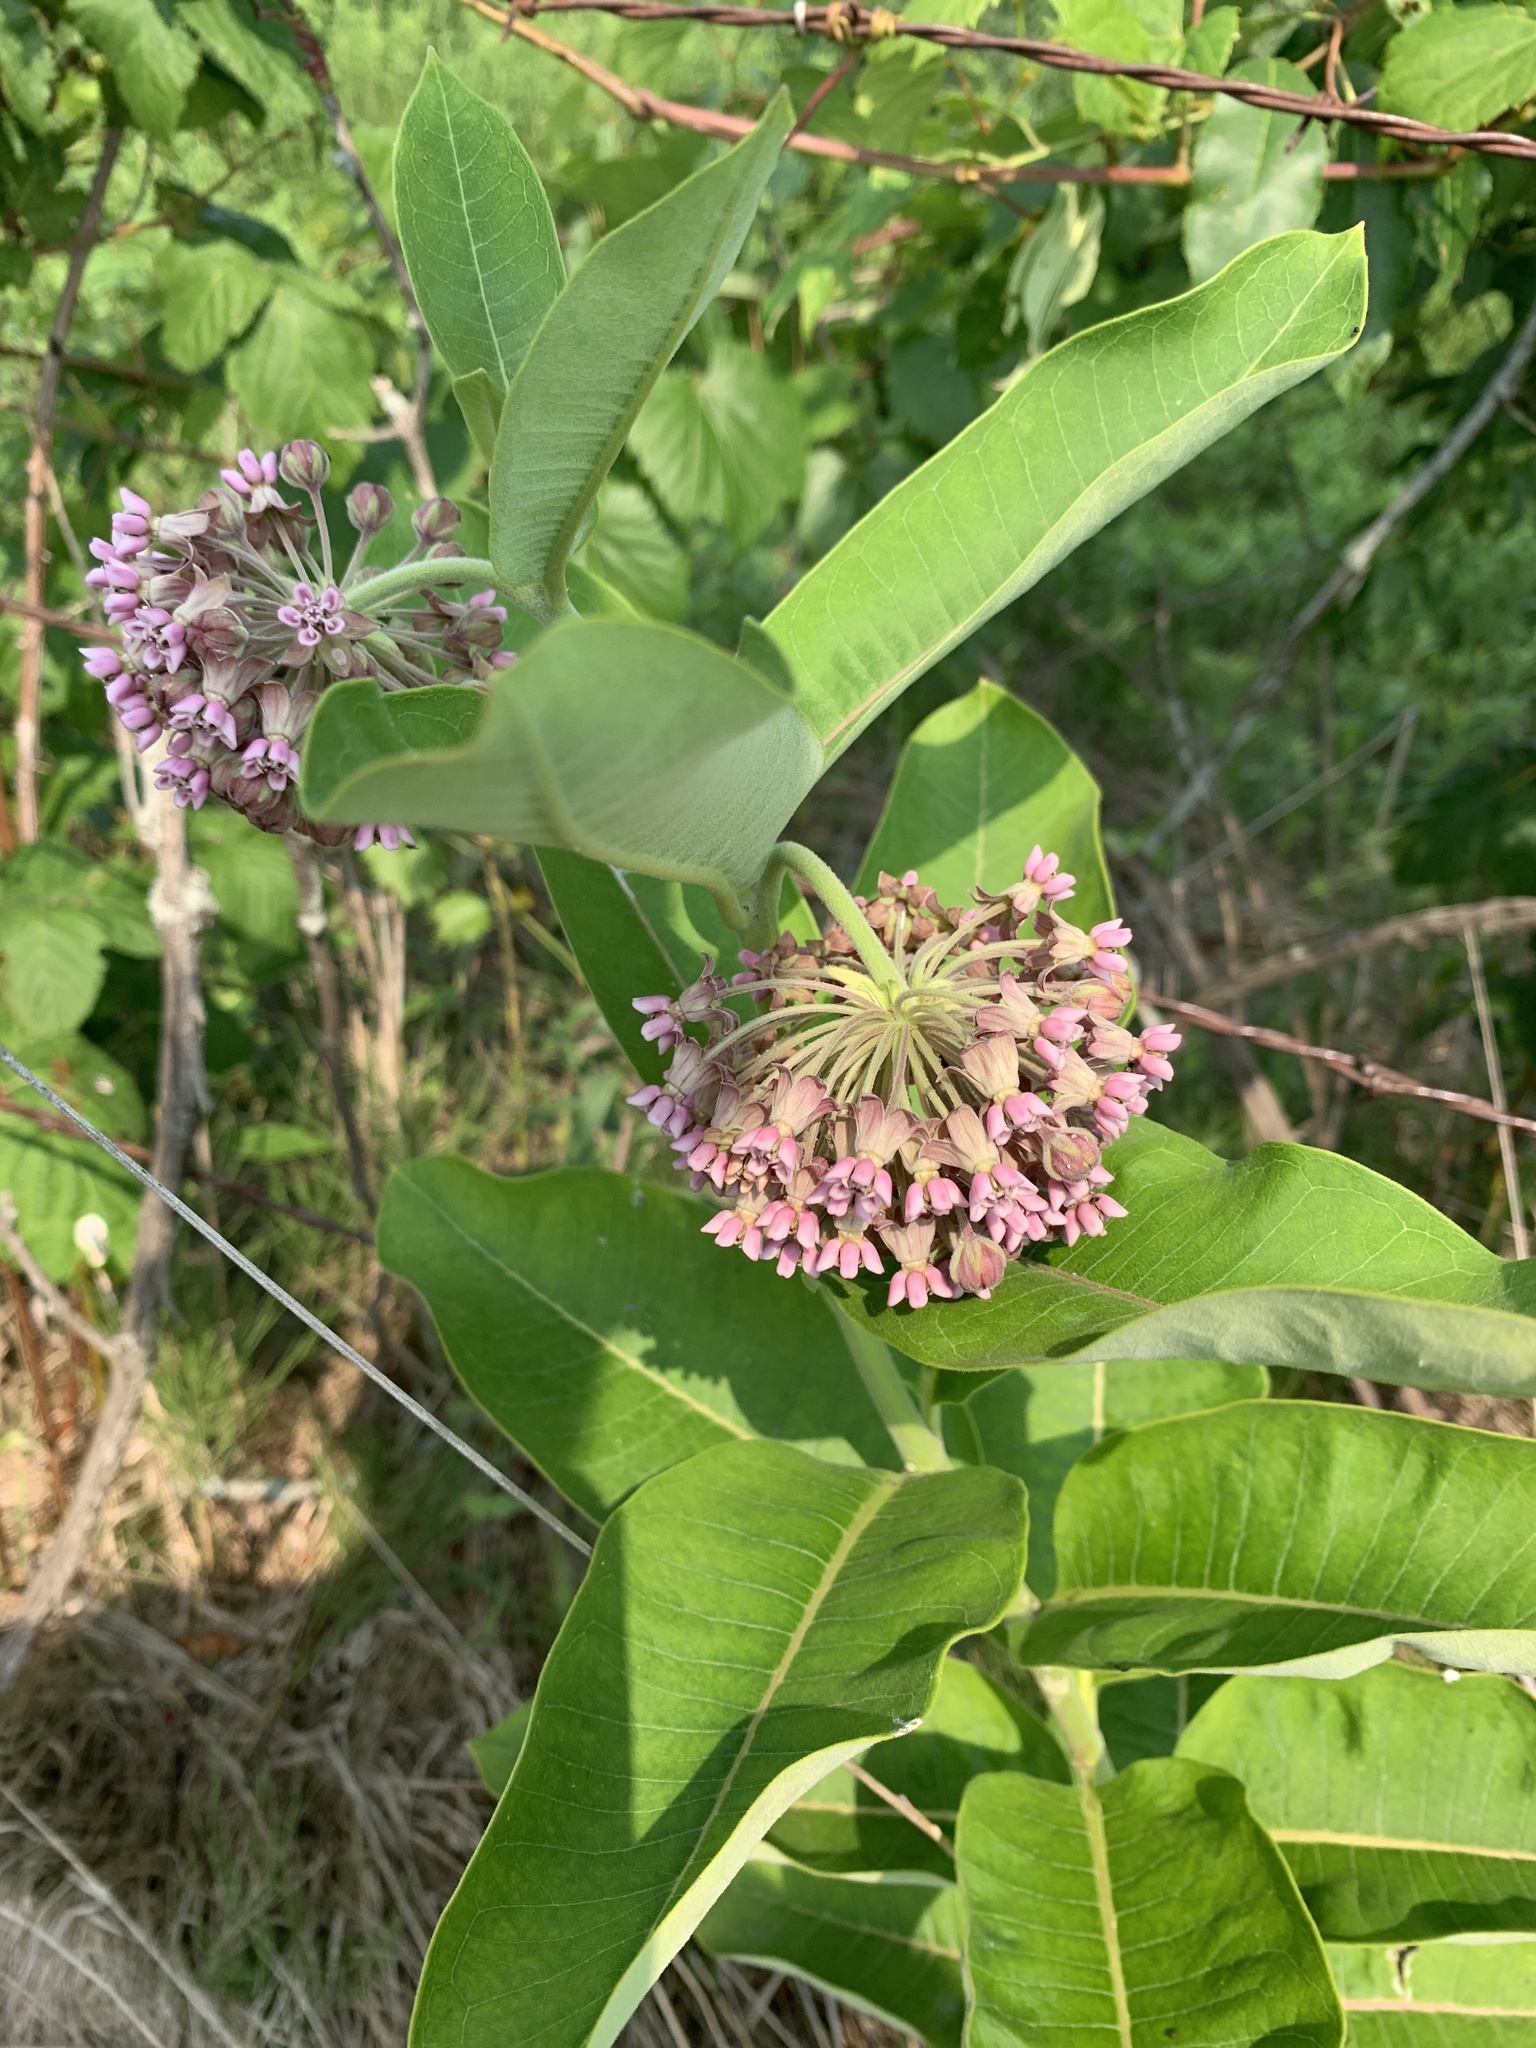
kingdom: Plantae
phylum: Tracheophyta
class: Magnoliopsida
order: Gentianales
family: Apocynaceae
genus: Asclepias
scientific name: Asclepias syriaca
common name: Common milkweed
